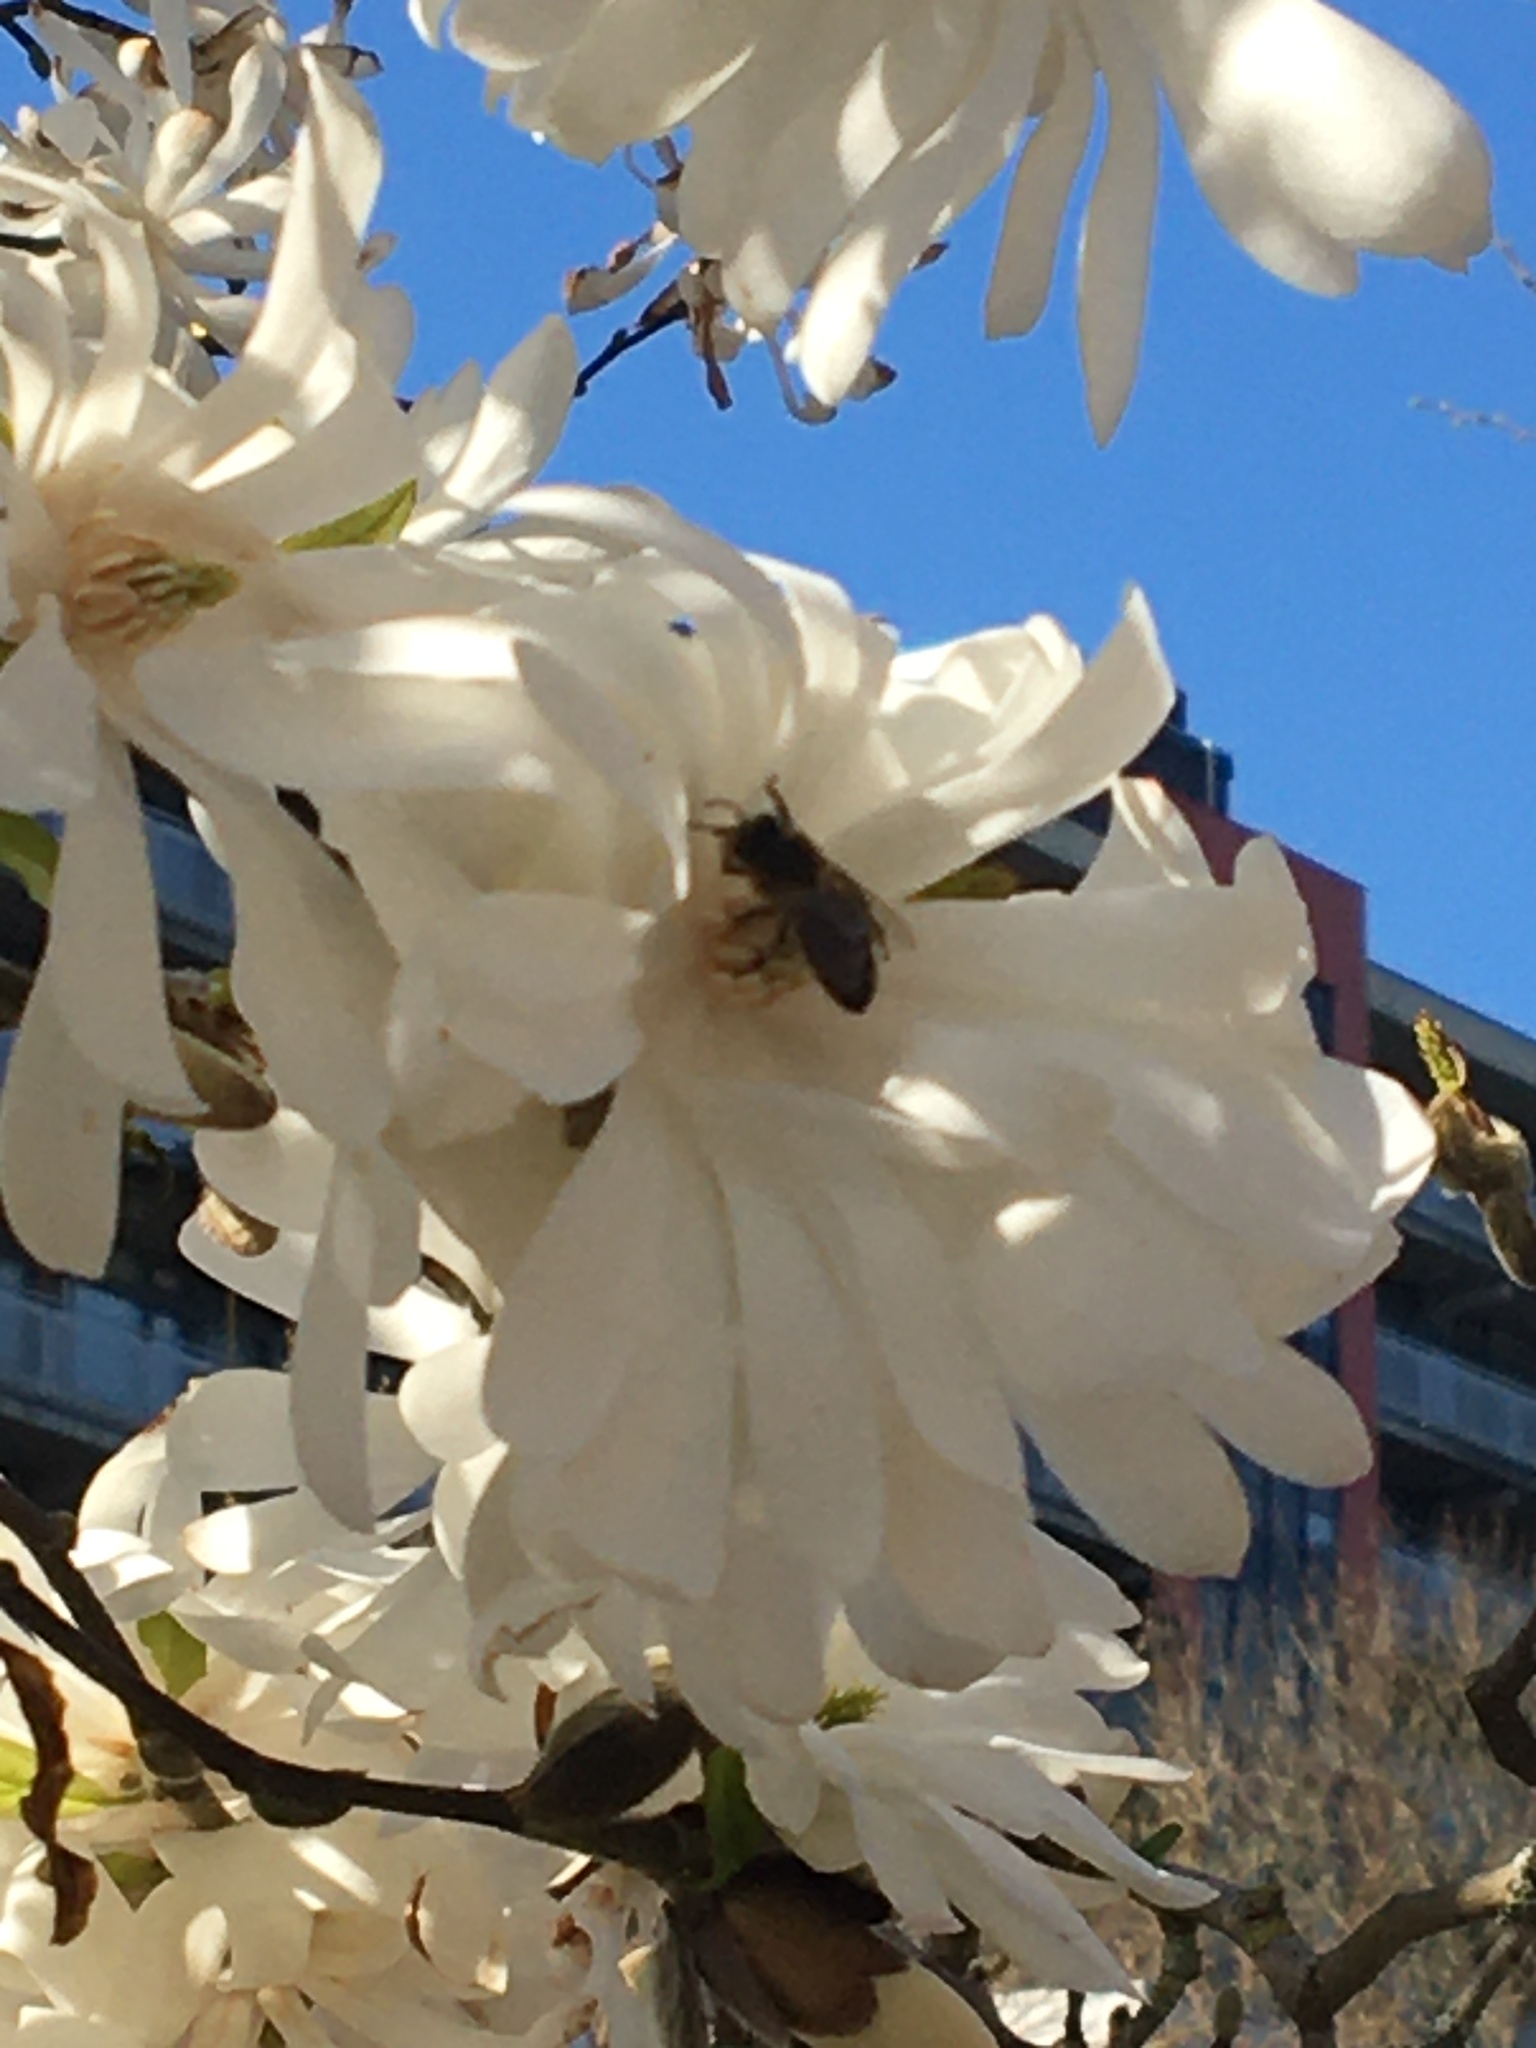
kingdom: Animalia
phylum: Arthropoda
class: Insecta
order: Hymenoptera
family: Apidae
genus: Apis
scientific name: Apis mellifera
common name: Honey bee
